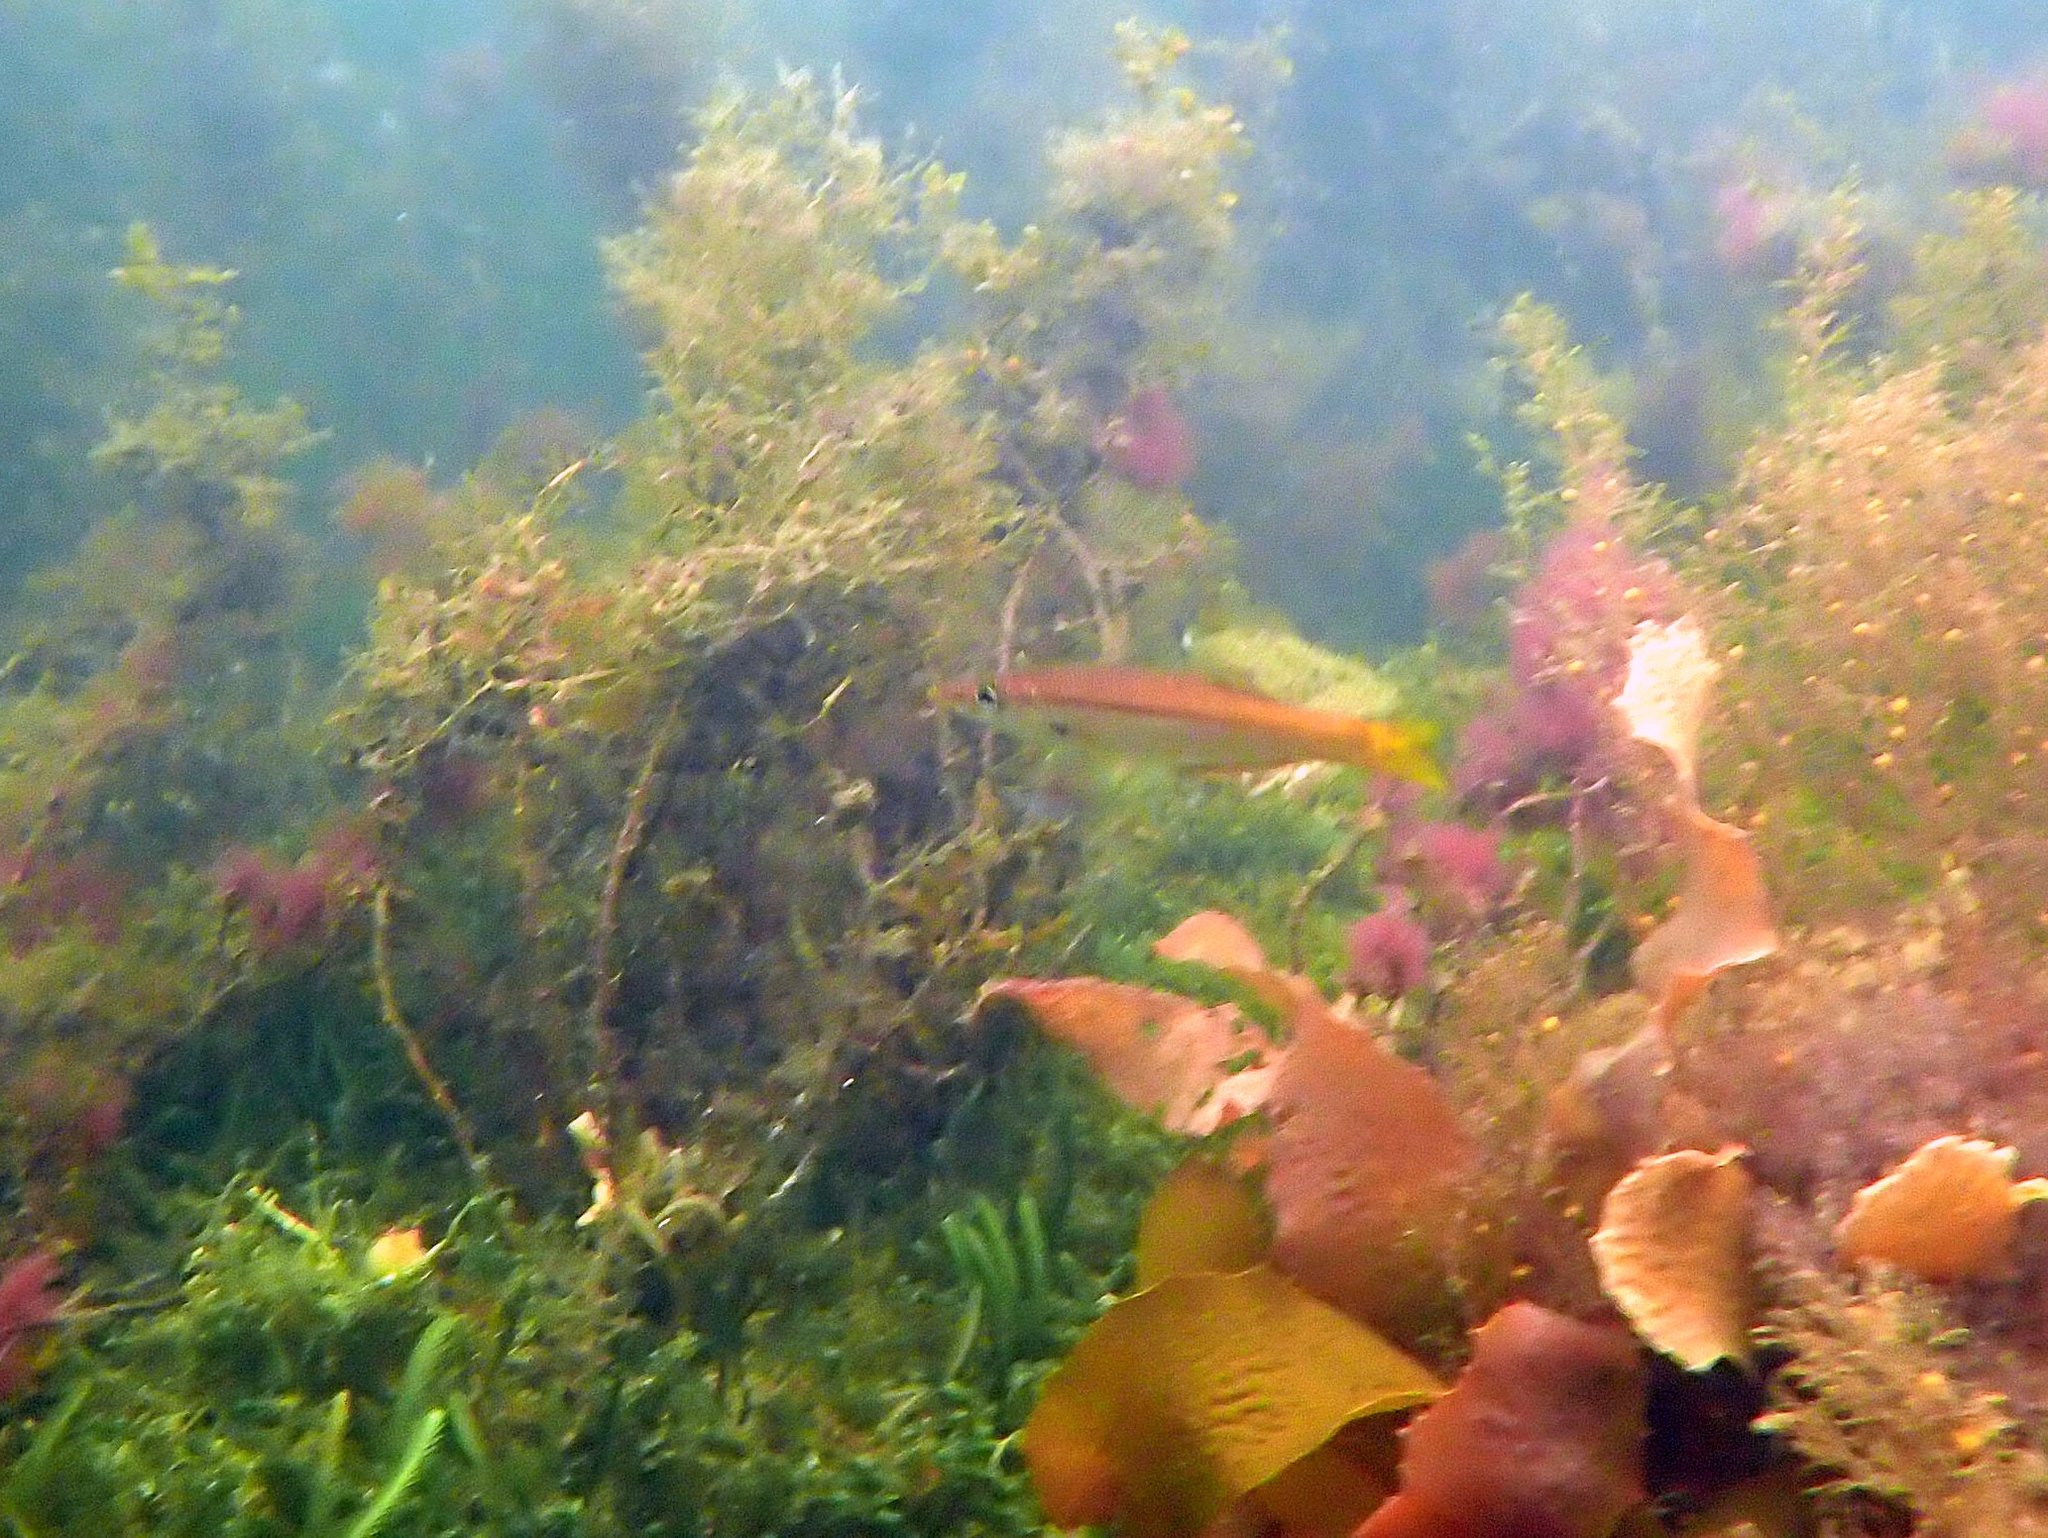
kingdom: Animalia
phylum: Chordata
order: Perciformes
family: Dinolestidae
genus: Dinolestes
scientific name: Dinolestes lewini
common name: Jack pike
